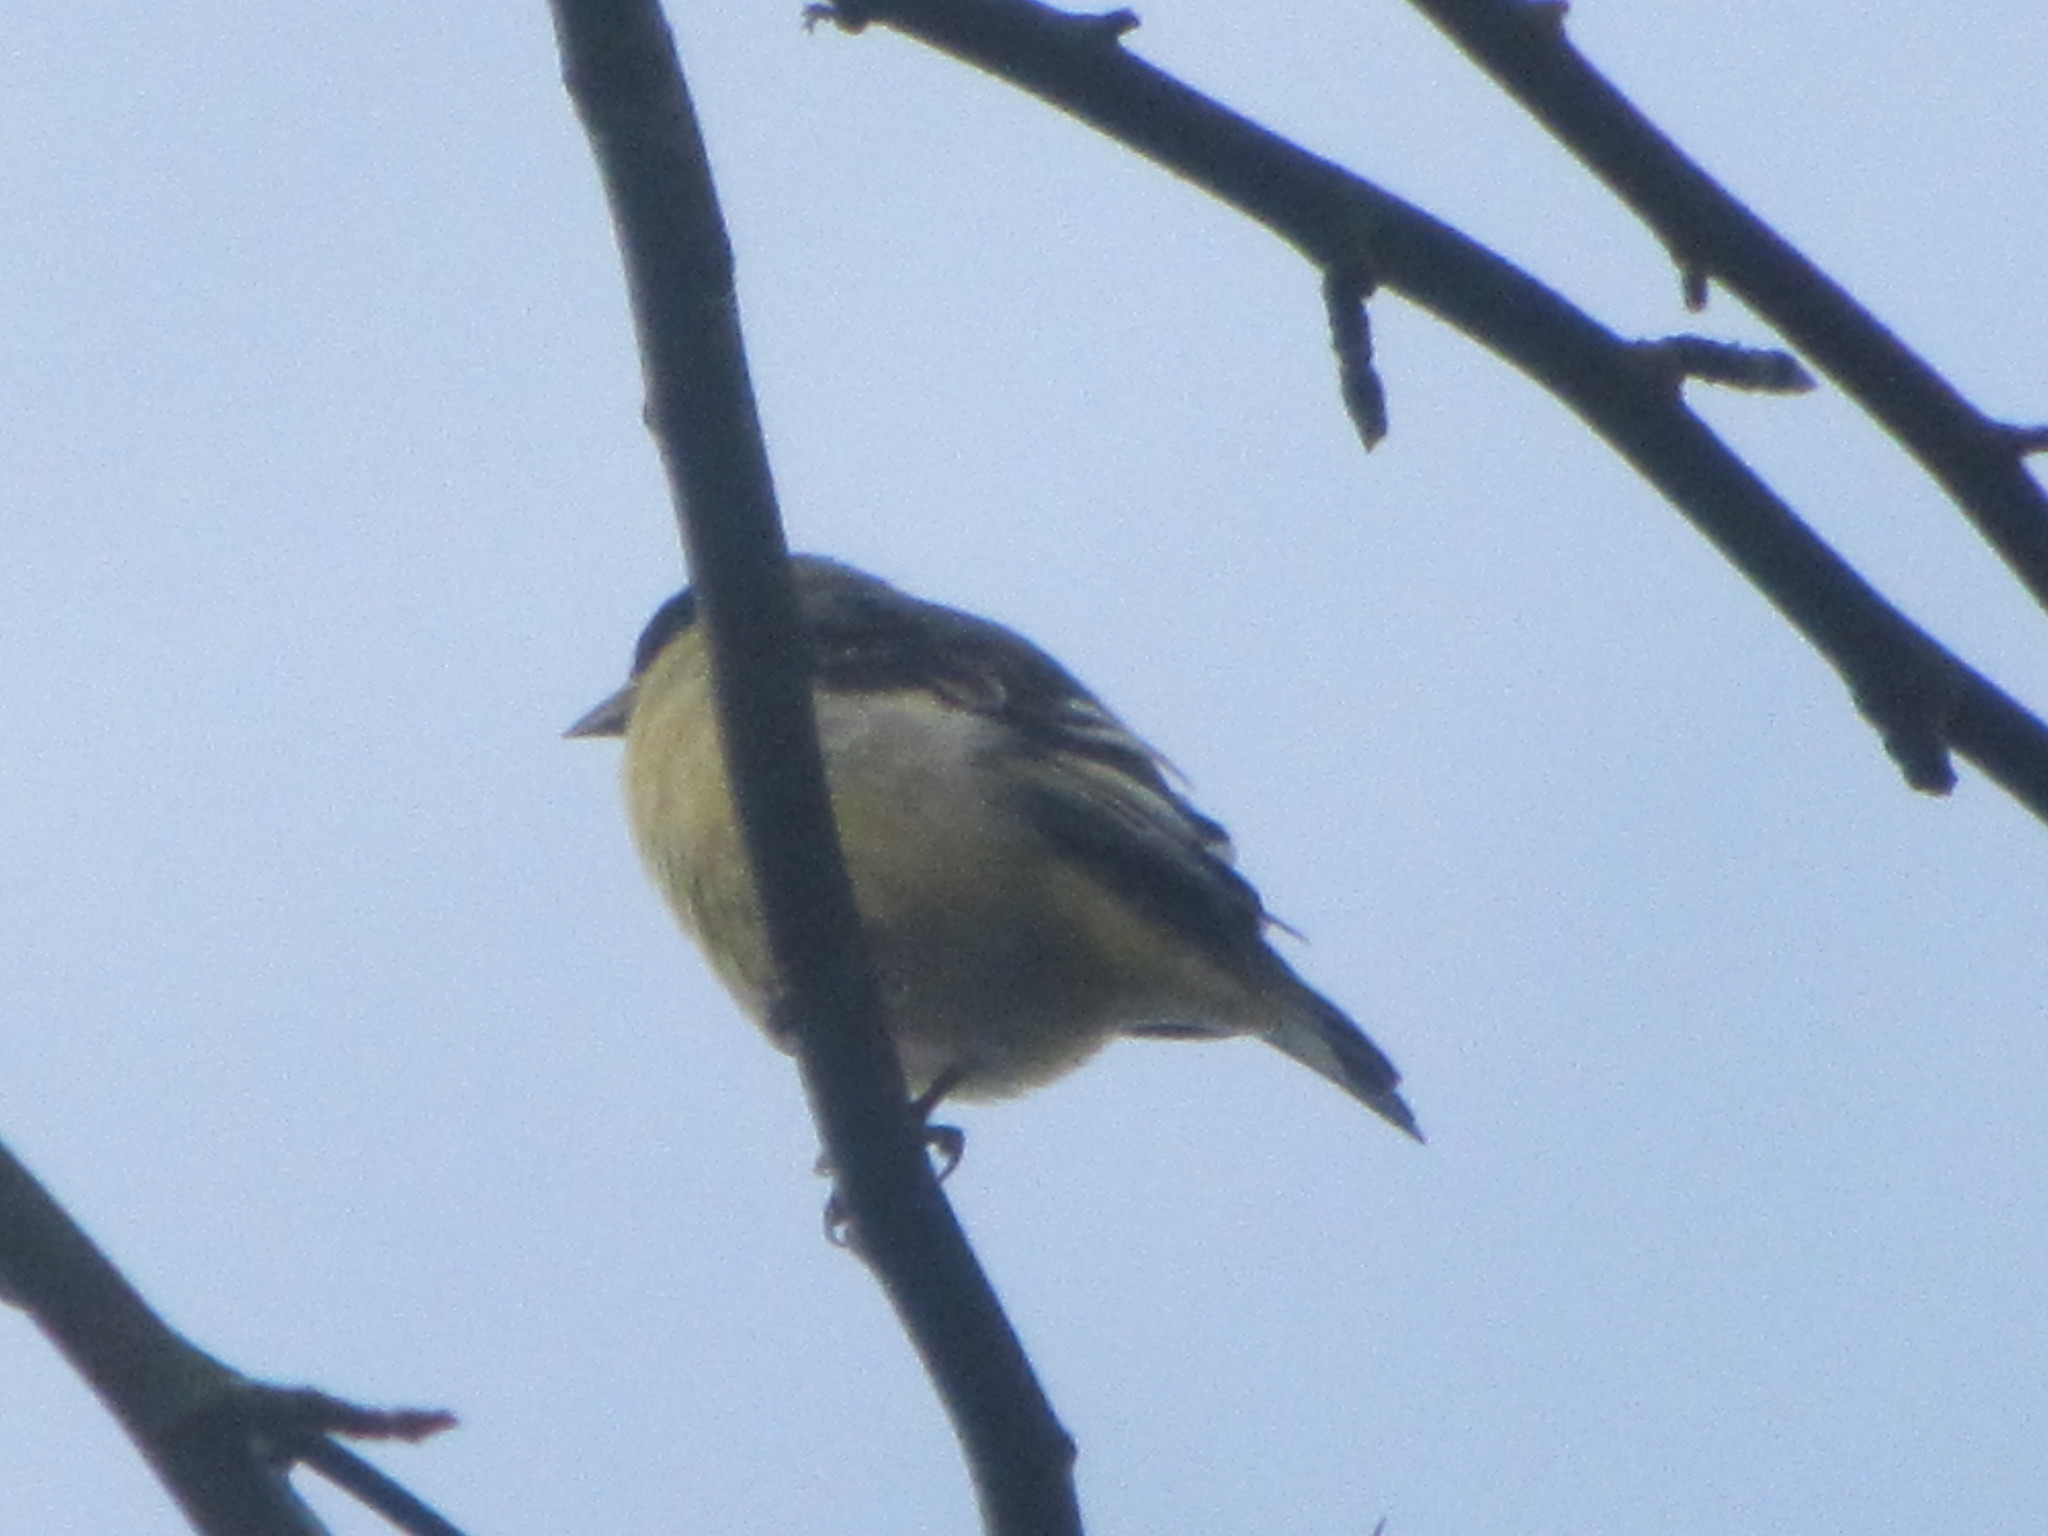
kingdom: Animalia
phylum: Chordata
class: Aves
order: Passeriformes
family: Fringillidae
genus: Spinus
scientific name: Spinus psaltria
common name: Lesser goldfinch
